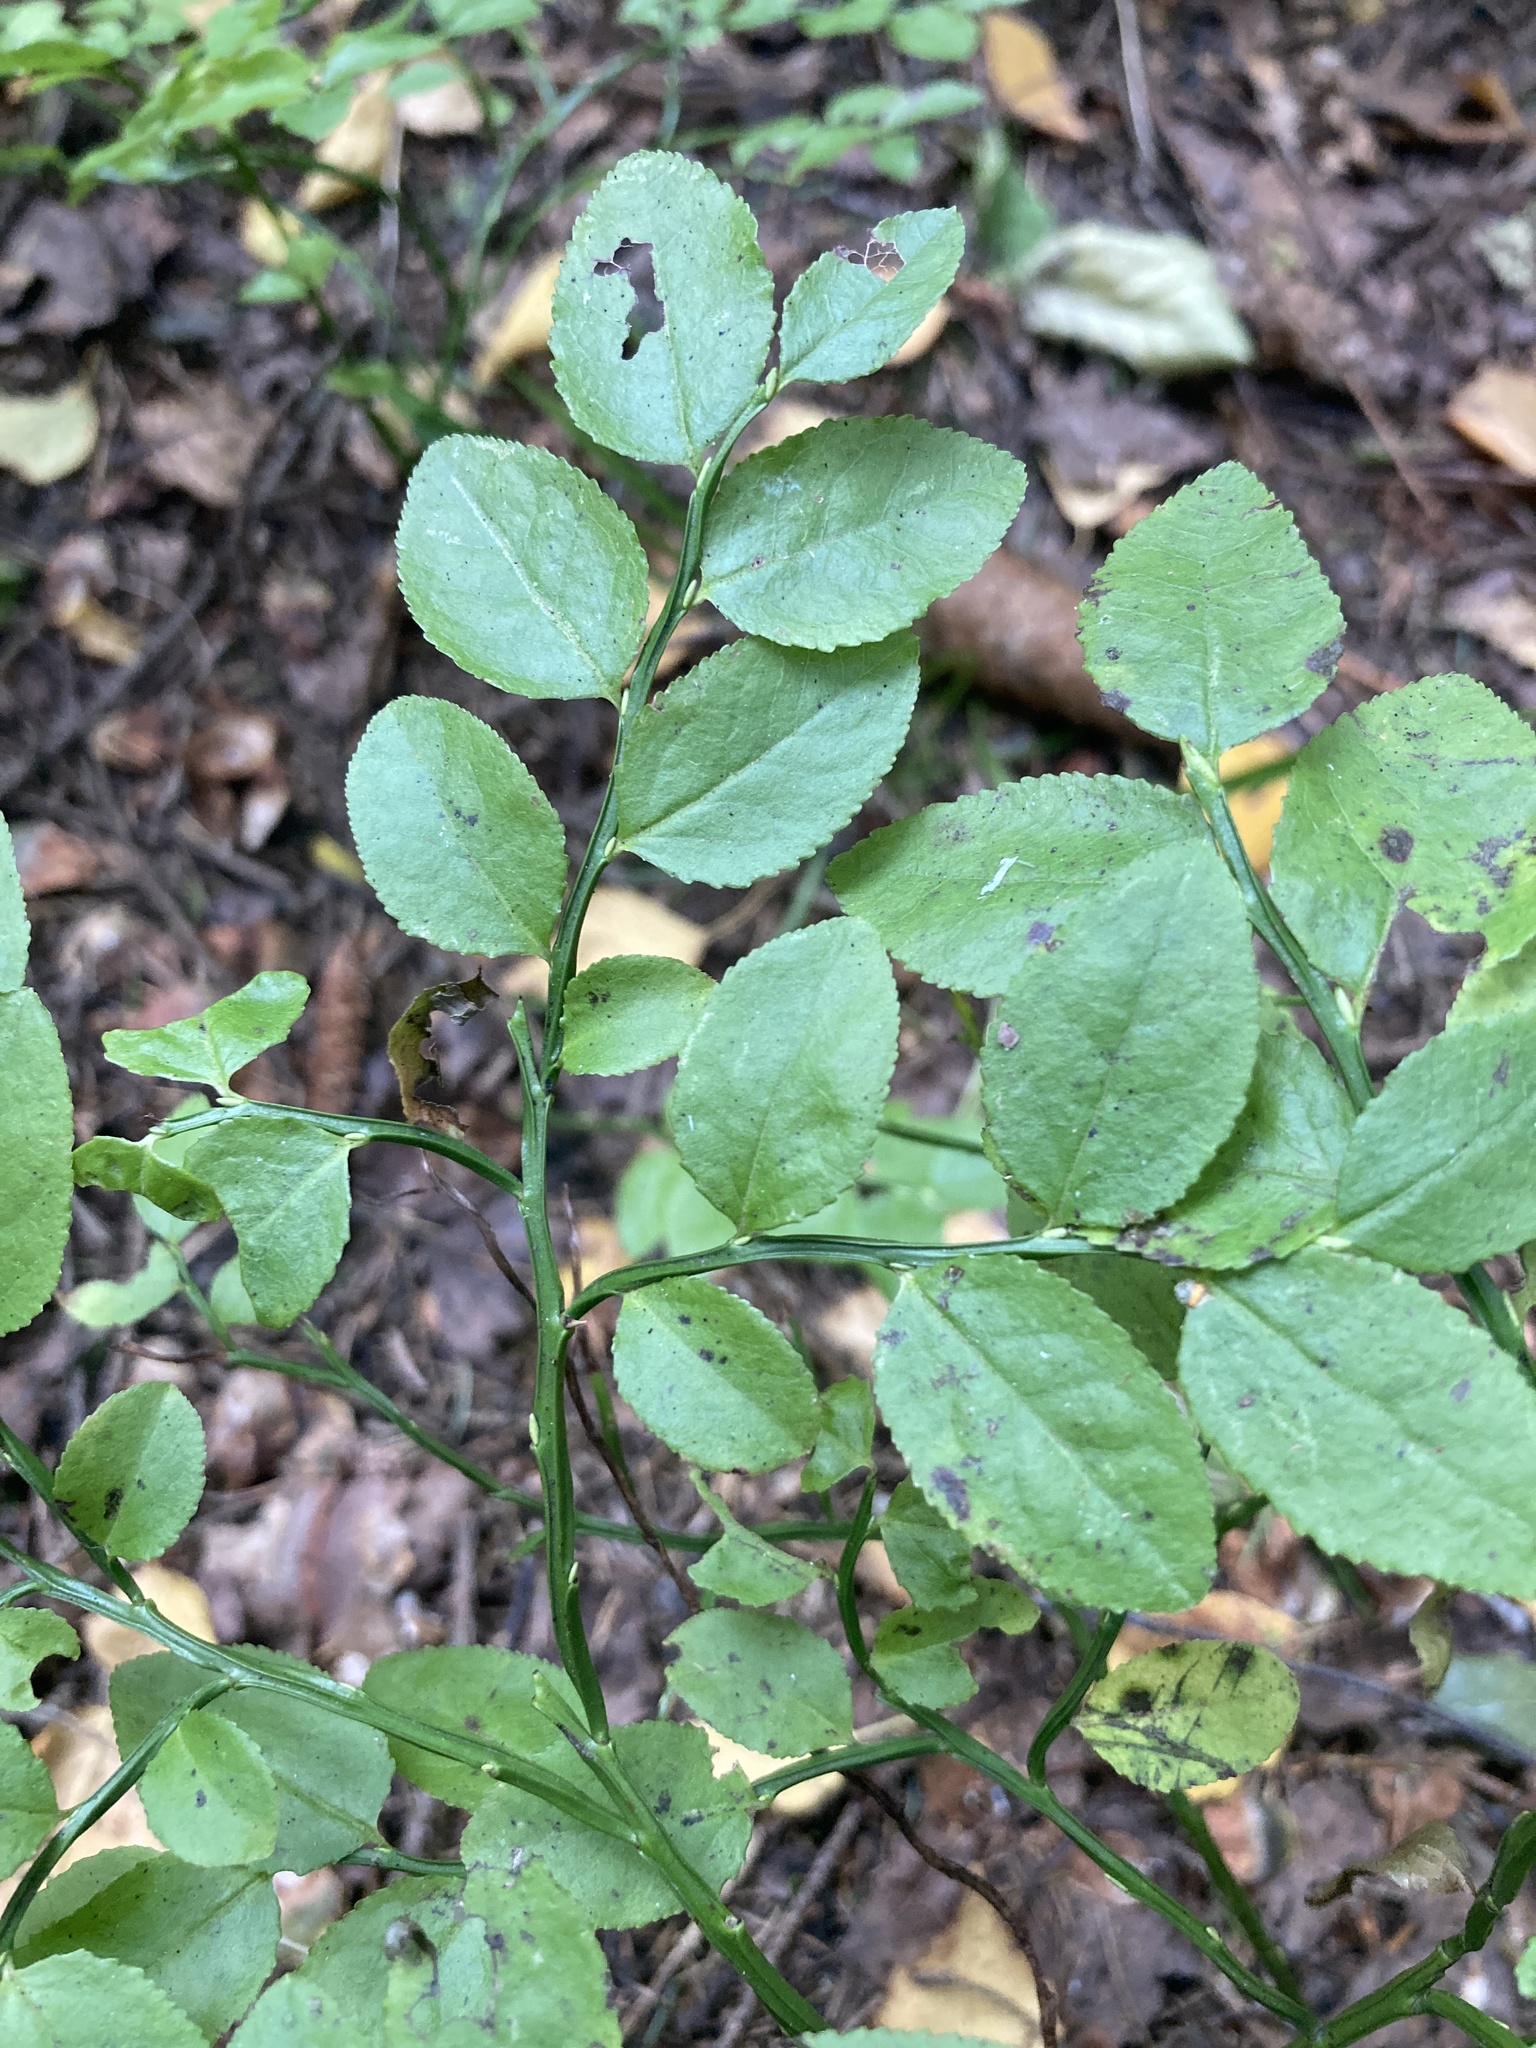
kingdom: Plantae
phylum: Tracheophyta
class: Magnoliopsida
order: Ericales
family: Ericaceae
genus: Vaccinium
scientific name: Vaccinium myrtillus
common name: Bilberry
